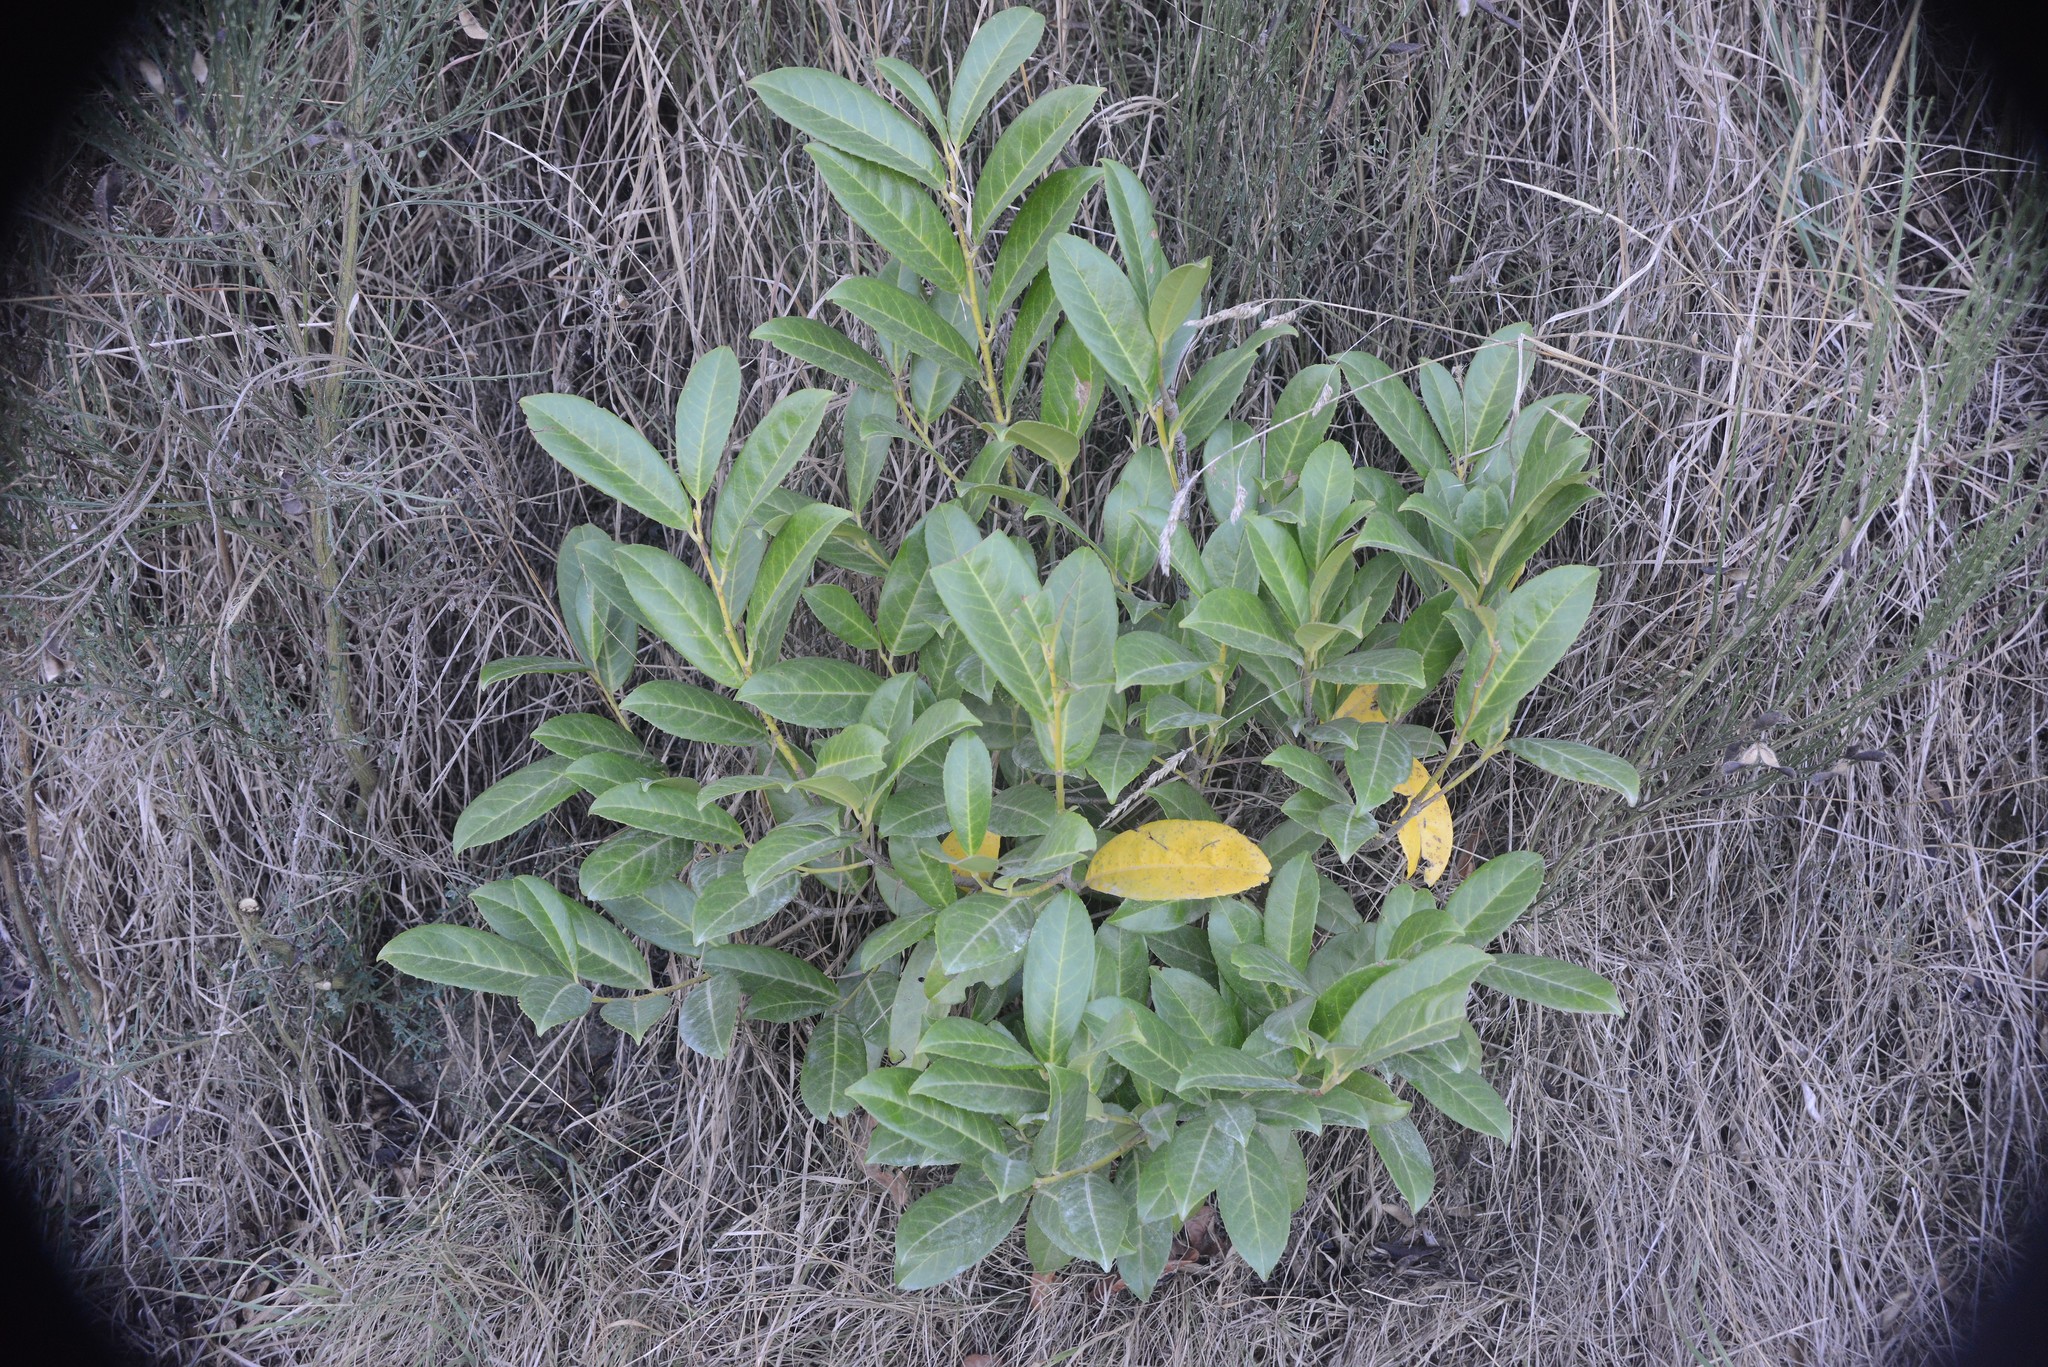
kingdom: Plantae
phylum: Tracheophyta
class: Magnoliopsida
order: Rosales
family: Rosaceae
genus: Prunus
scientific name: Prunus laurocerasus
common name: Cherry laurel
